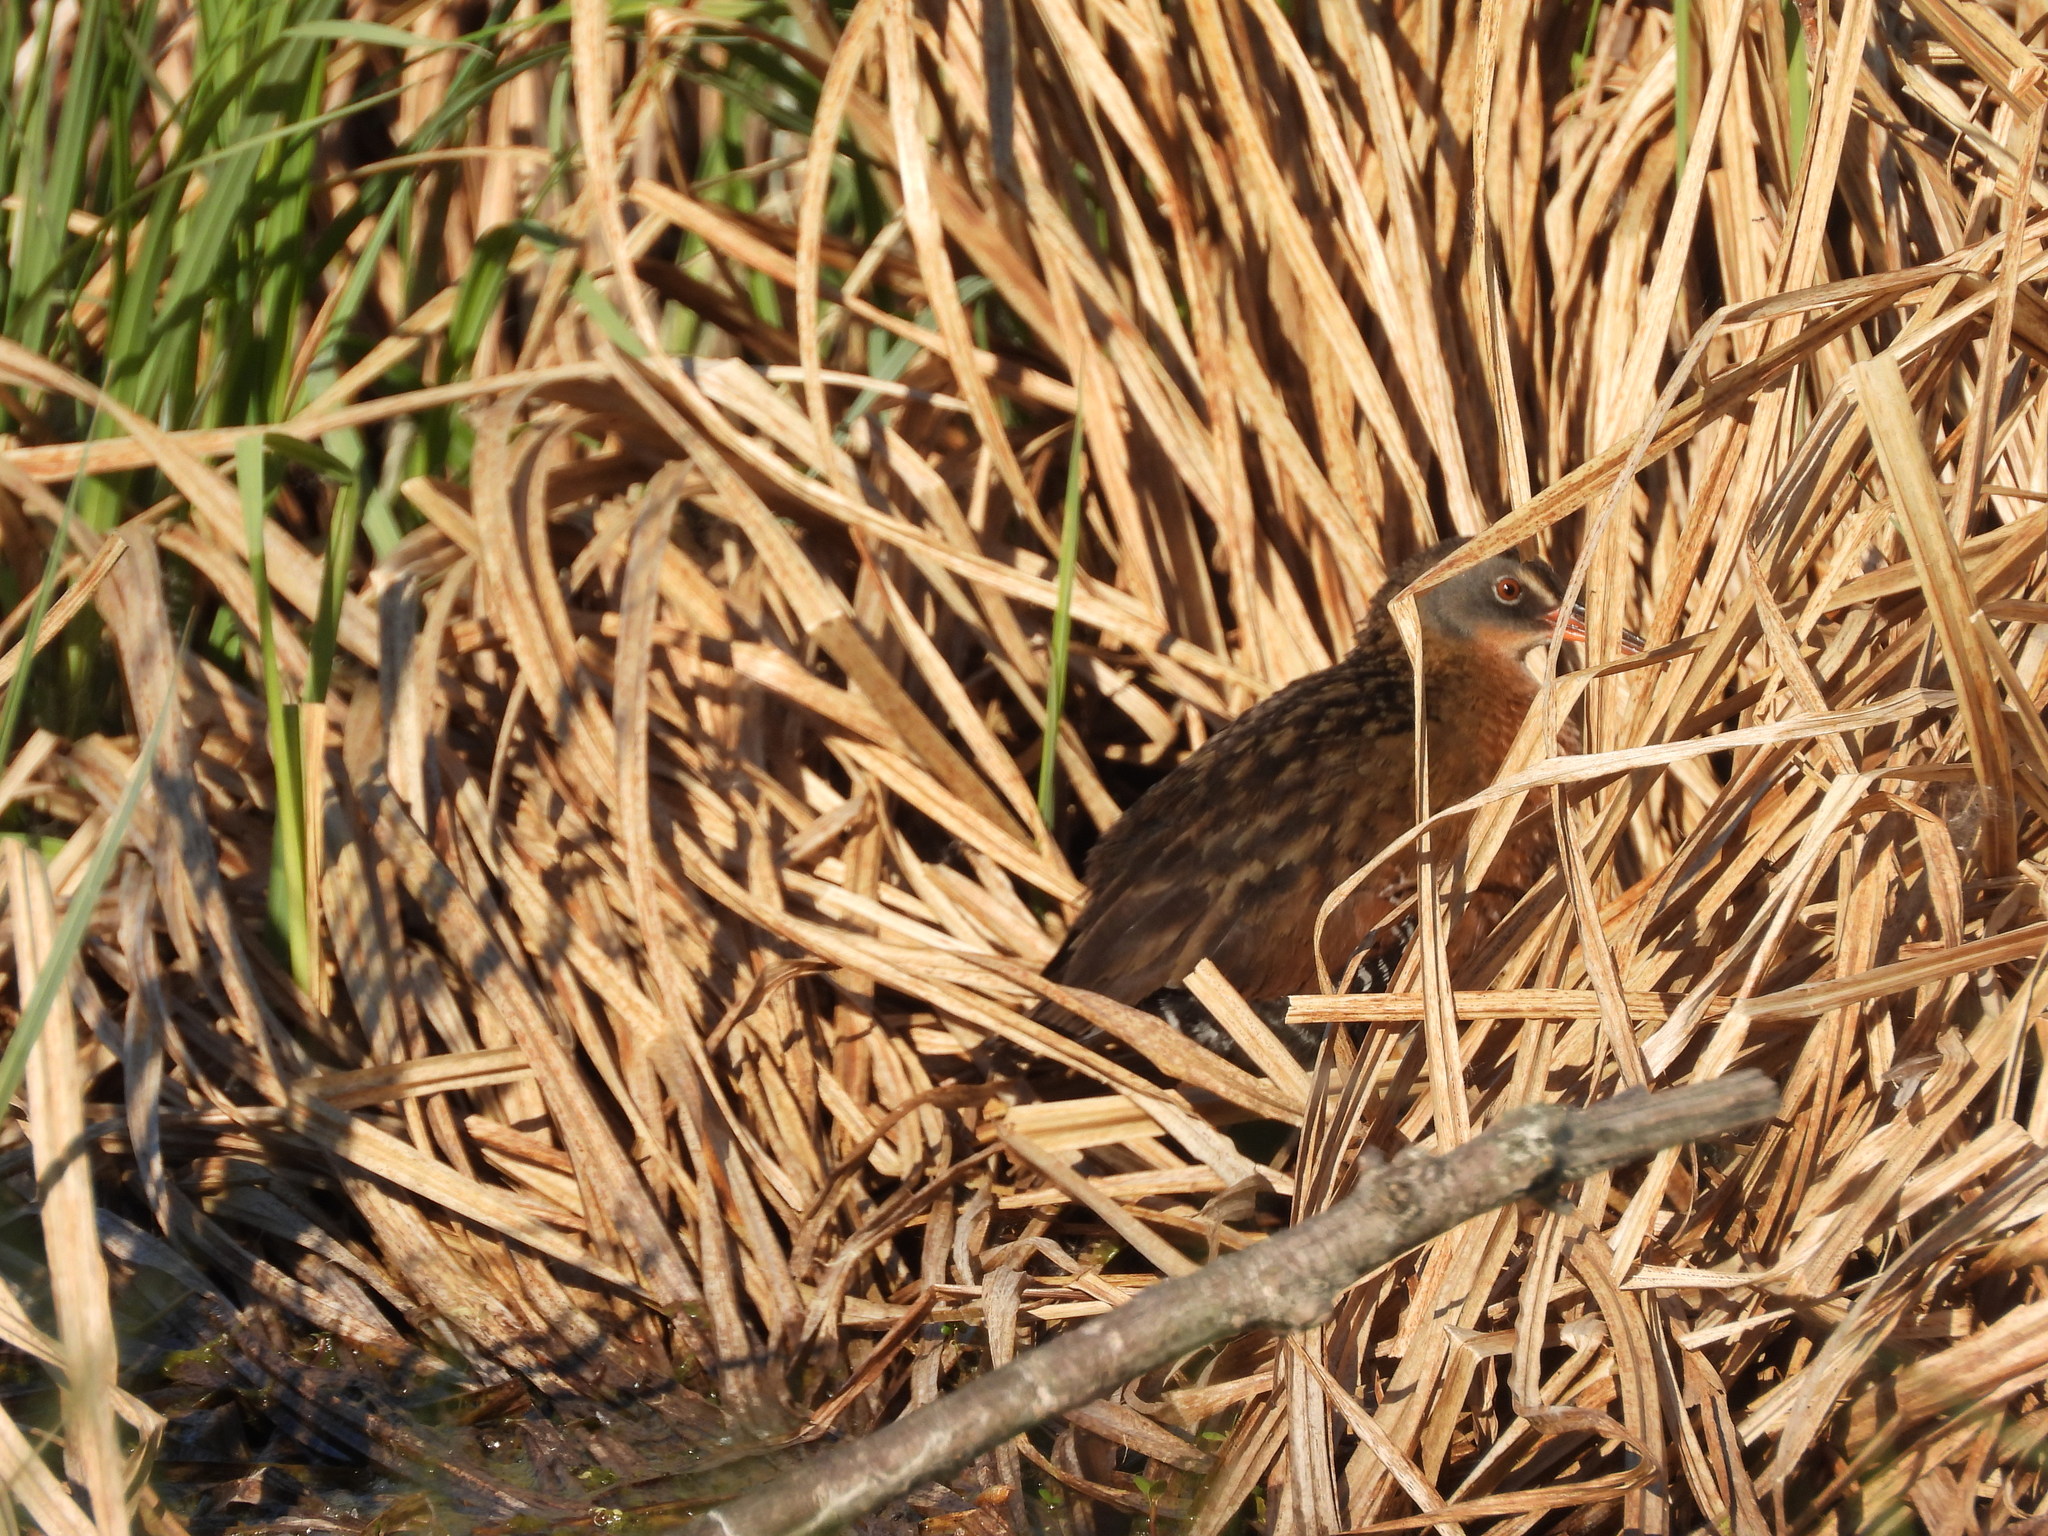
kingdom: Animalia
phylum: Chordata
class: Aves
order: Gruiformes
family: Rallidae
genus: Rallus
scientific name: Rallus limicola
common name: Virginia rail
